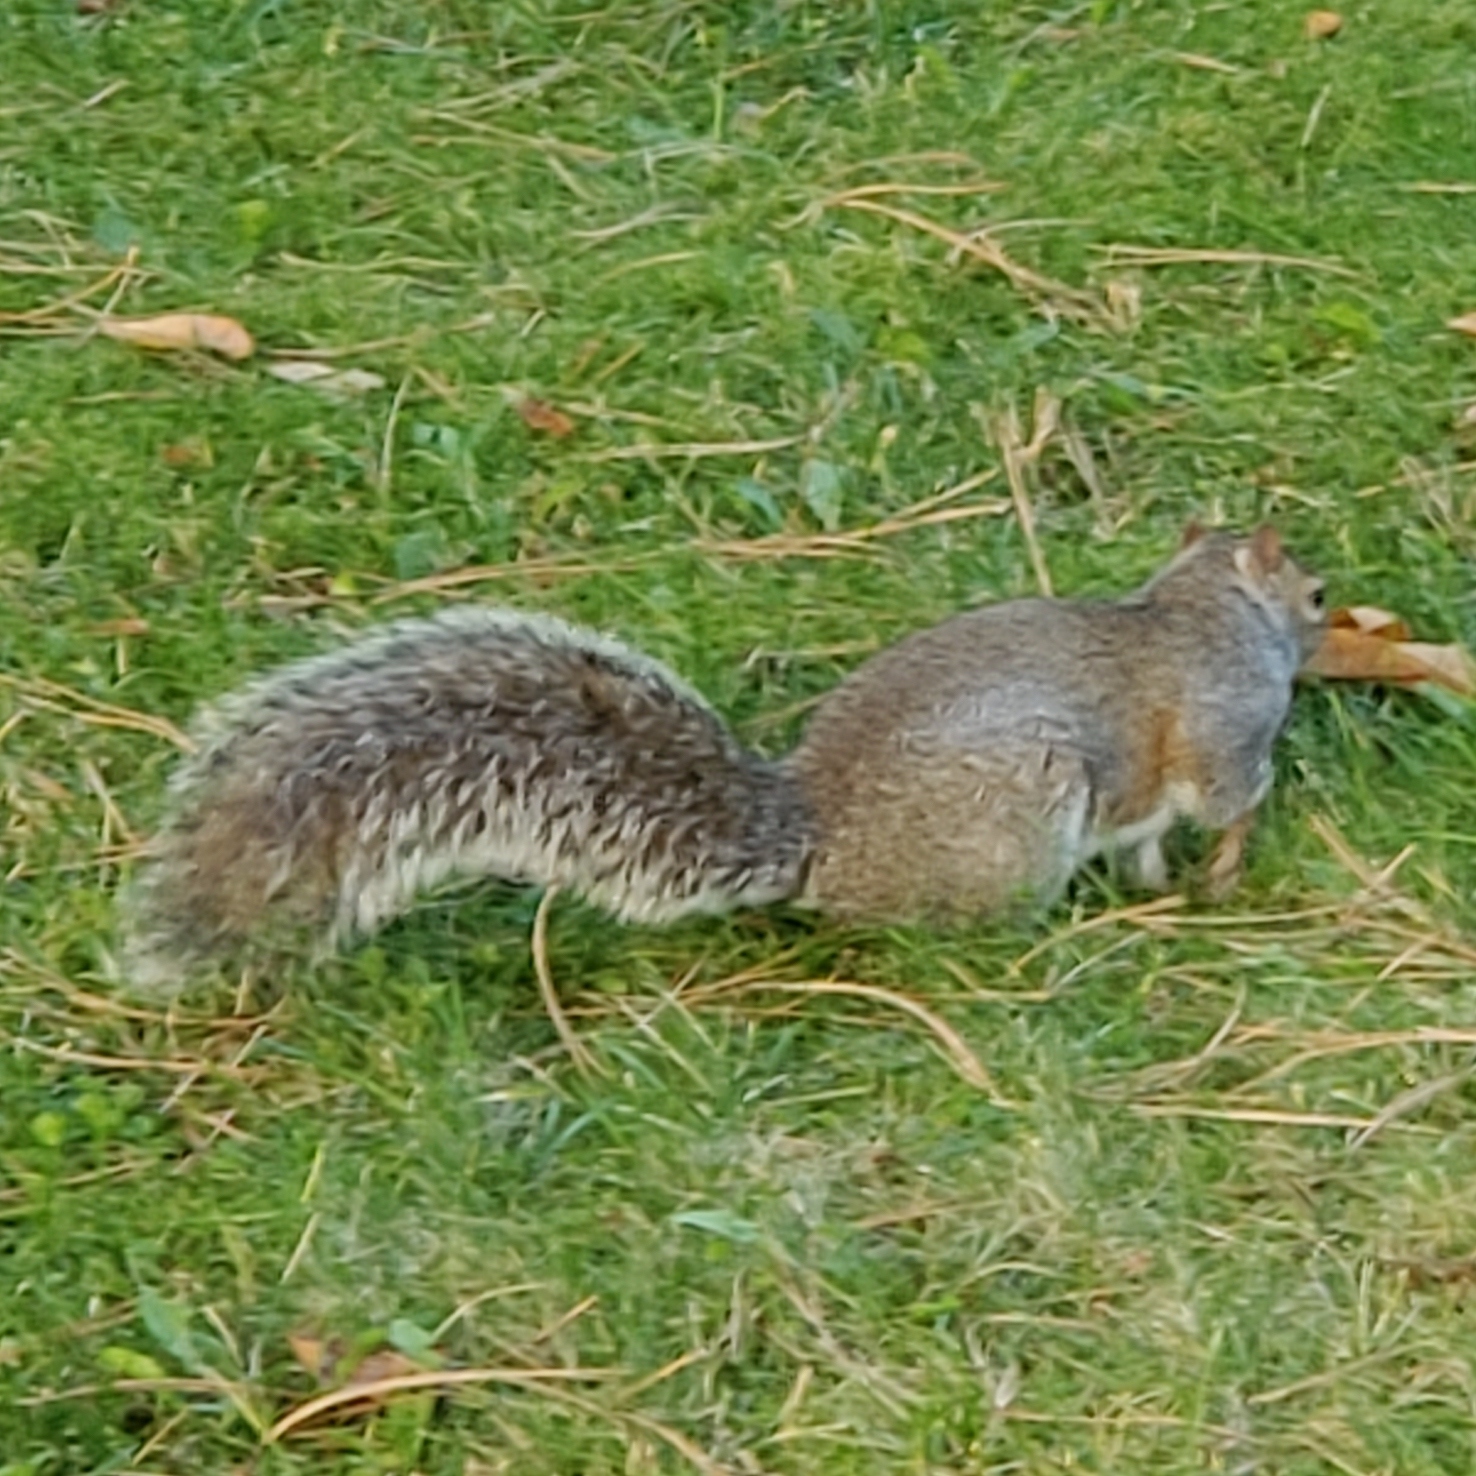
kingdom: Animalia
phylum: Chordata
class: Mammalia
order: Rodentia
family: Sciuridae
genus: Sciurus
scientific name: Sciurus carolinensis
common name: Eastern gray squirrel
